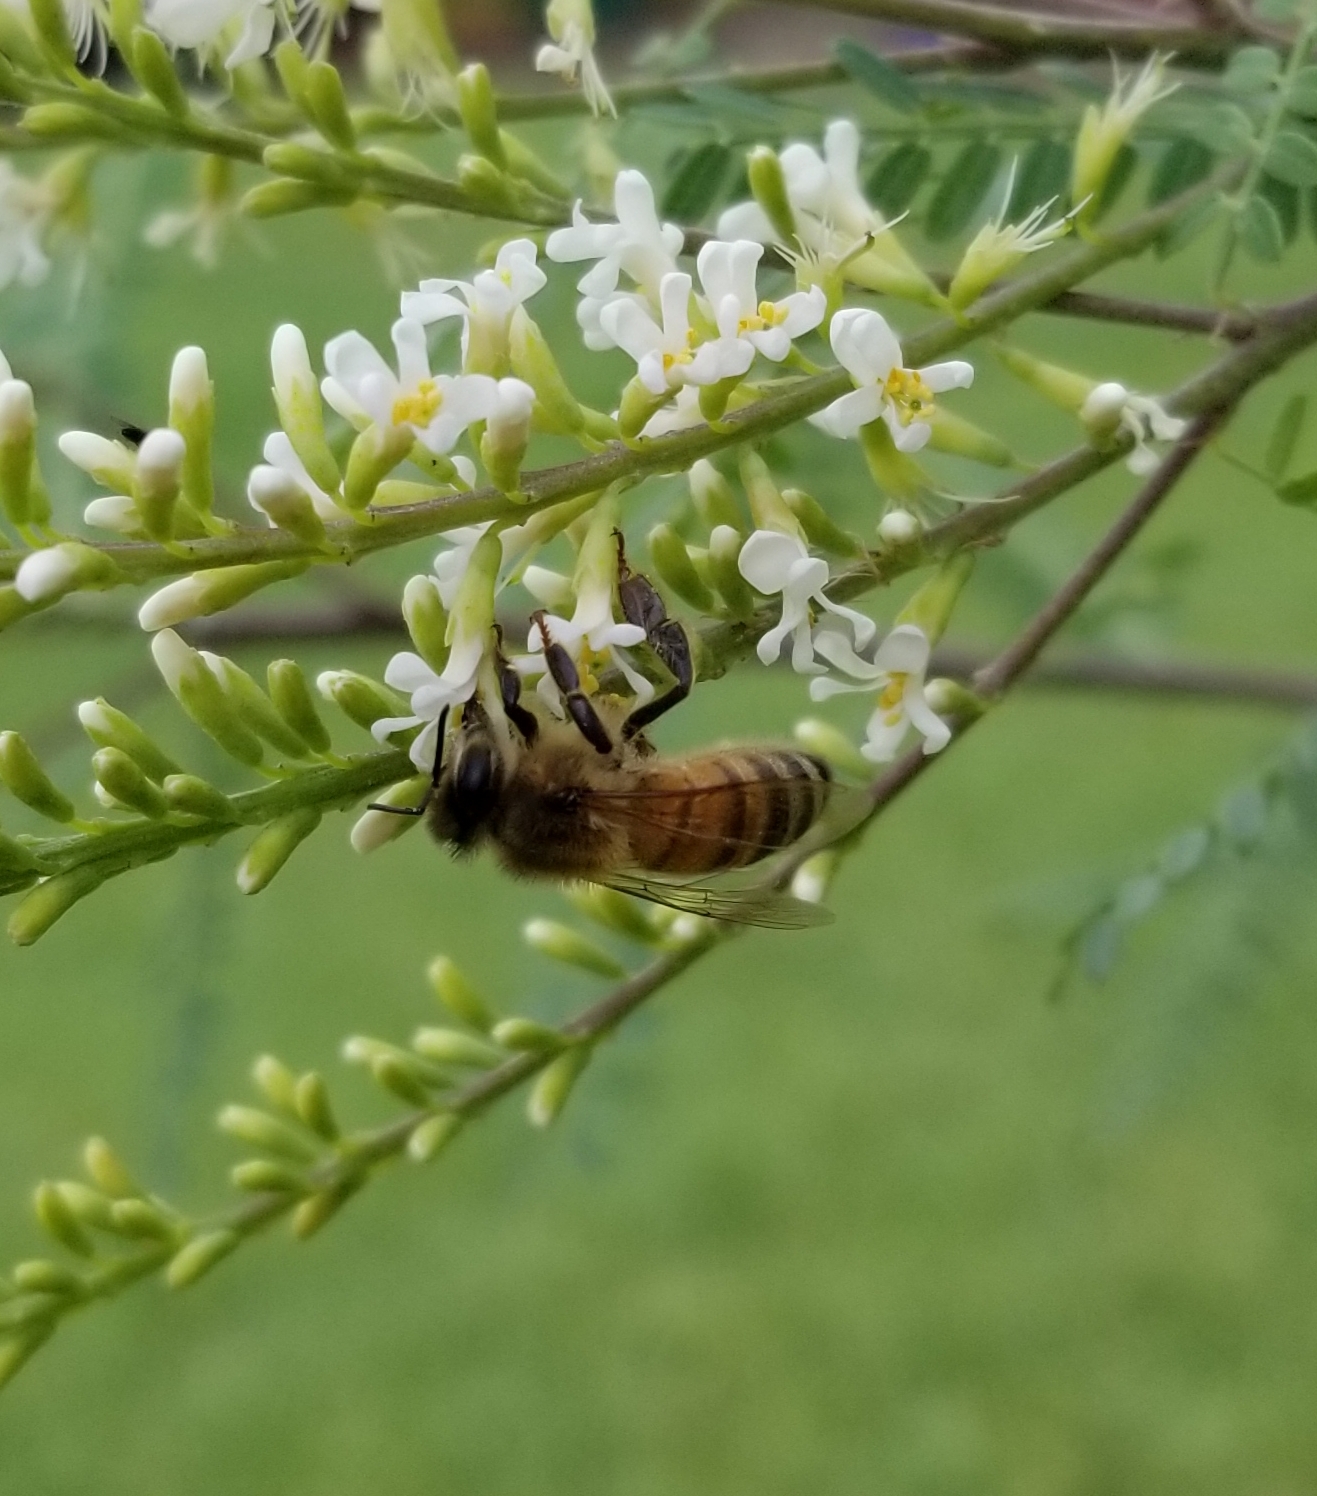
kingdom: Animalia
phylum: Arthropoda
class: Insecta
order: Hymenoptera
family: Apidae
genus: Apis
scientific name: Apis mellifera
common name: Honey bee
